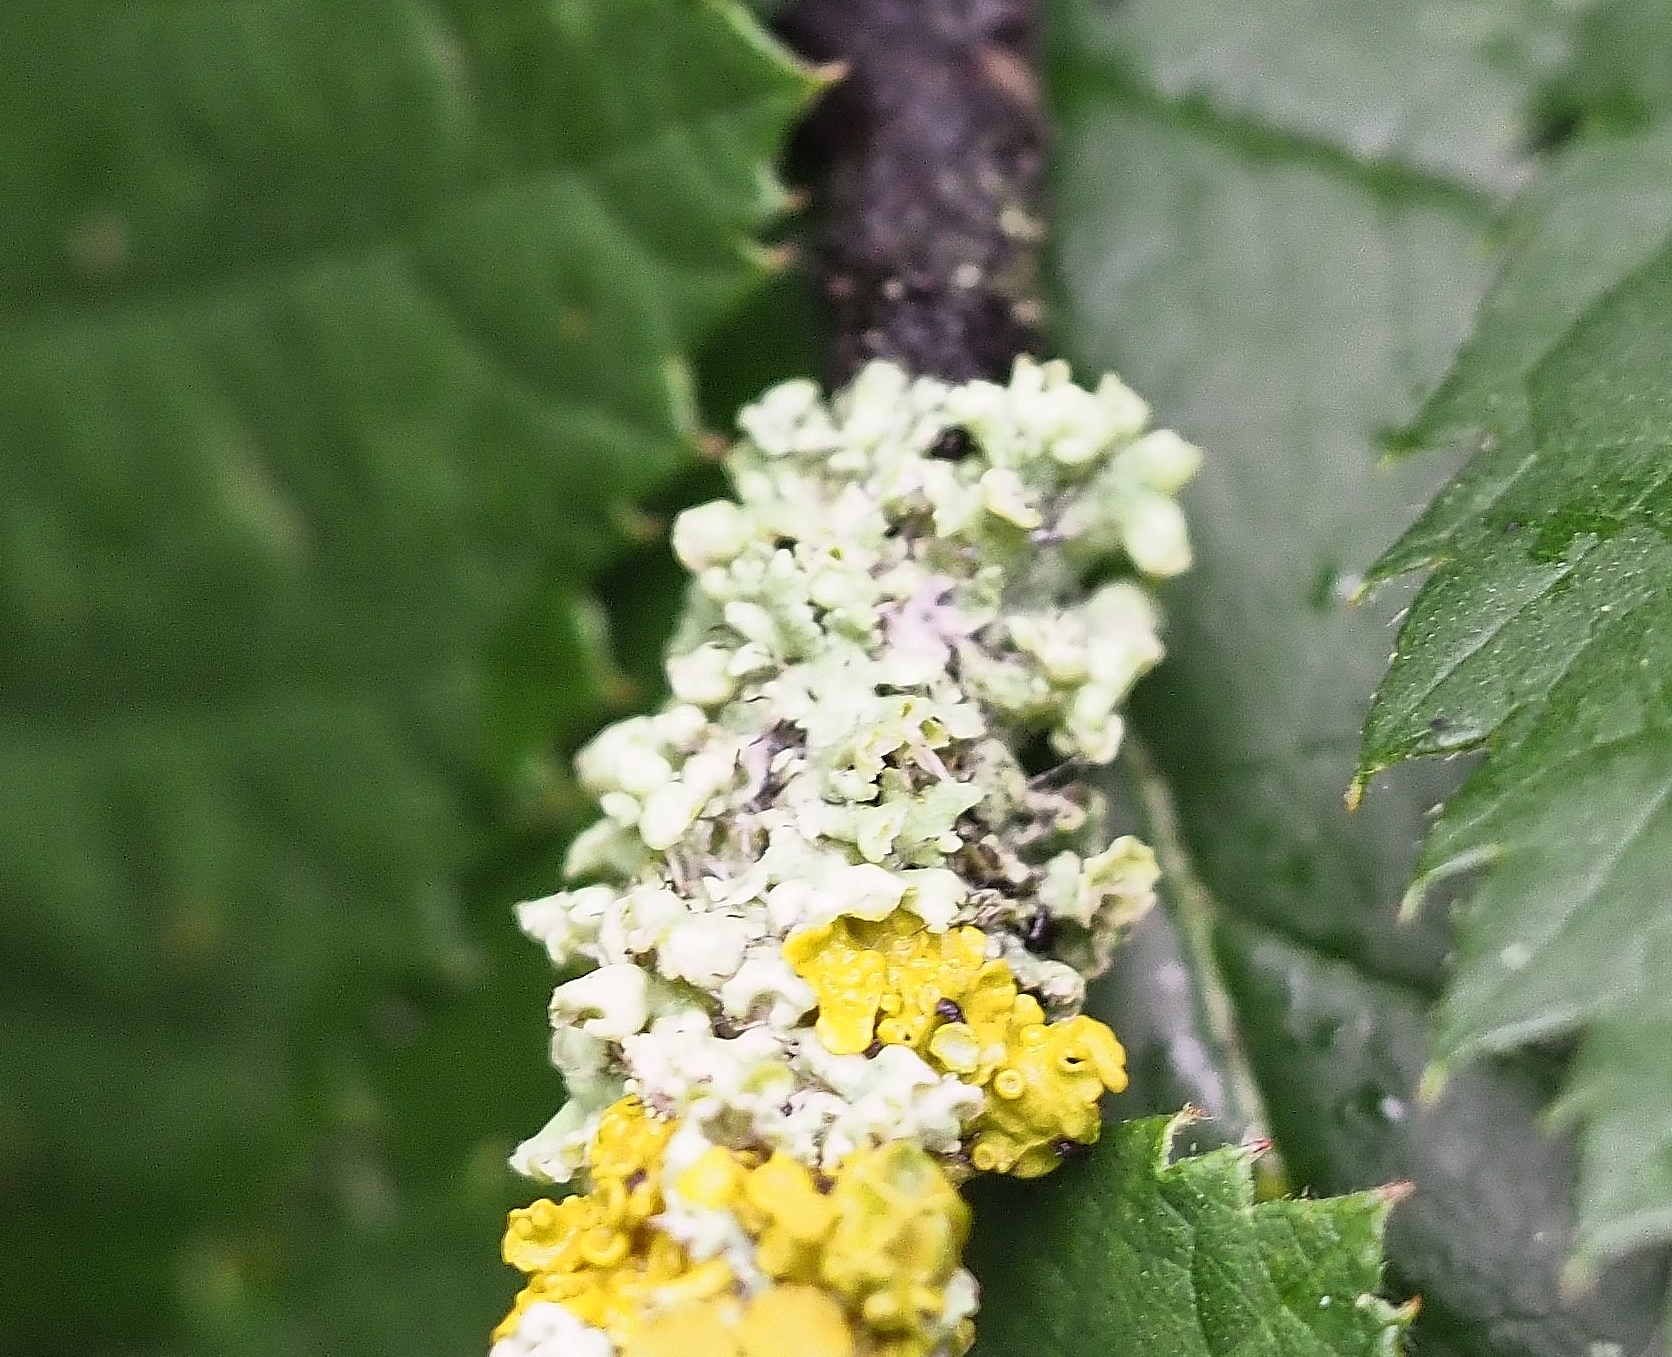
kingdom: Fungi
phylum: Ascomycota
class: Lecanoromycetes
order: Caliciales
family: Physciaceae
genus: Physcia
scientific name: Physcia adscendens
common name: Hooded rosette lichen
